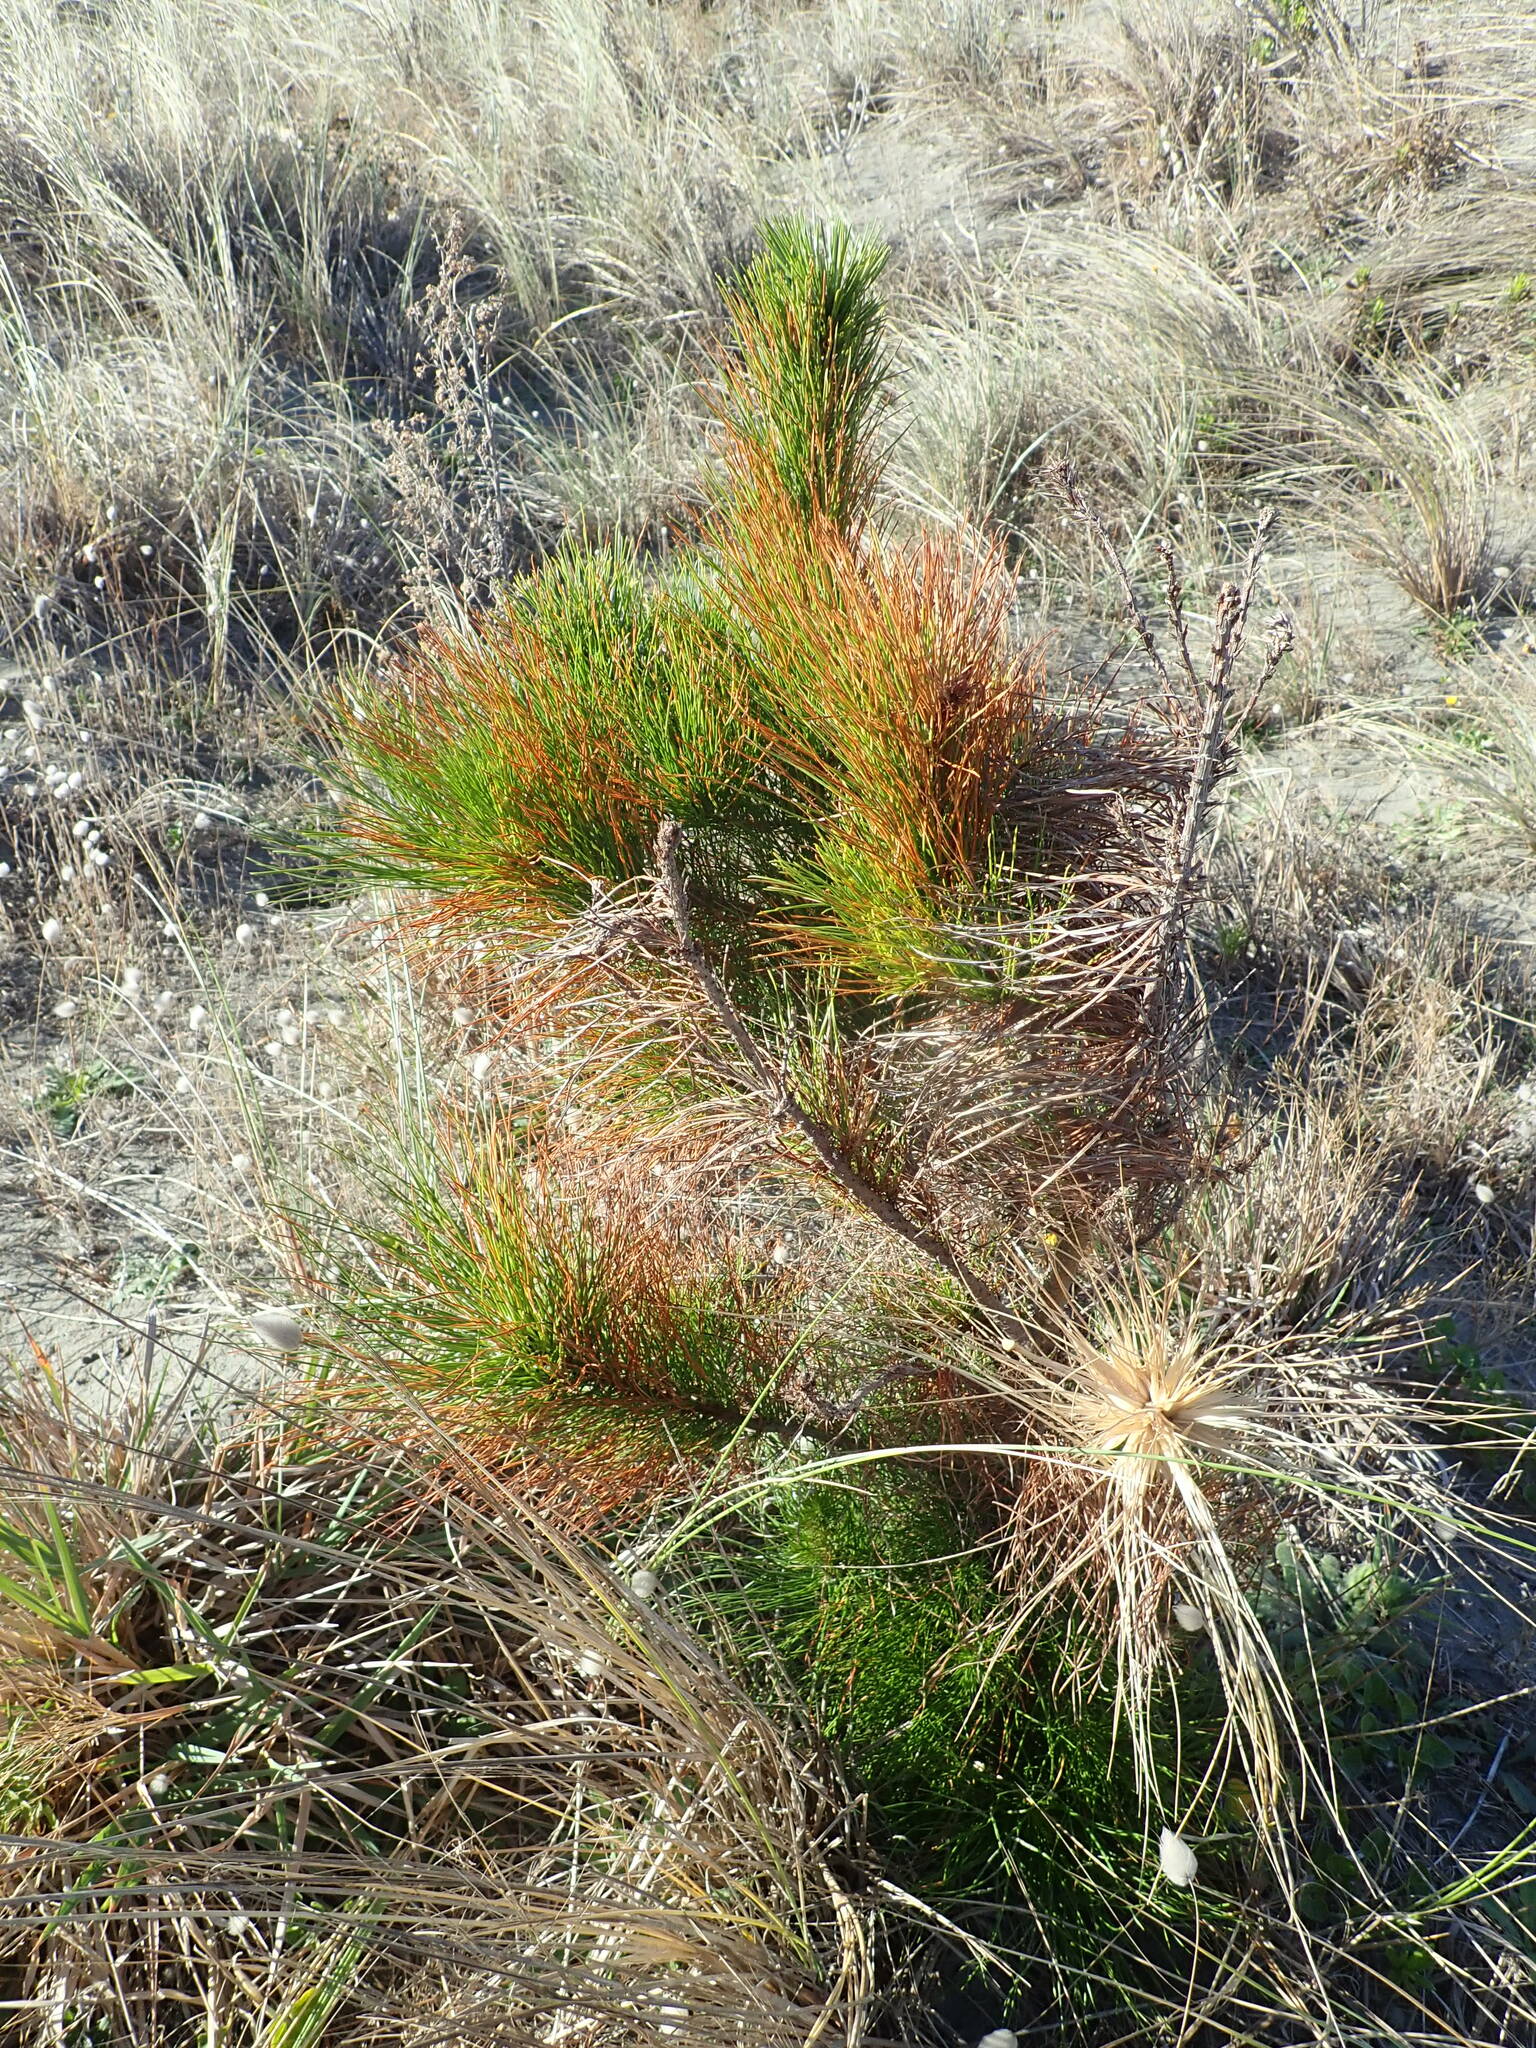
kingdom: Plantae
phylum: Tracheophyta
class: Pinopsida
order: Pinales
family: Pinaceae
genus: Pinus
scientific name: Pinus radiata
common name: Monterey pine
